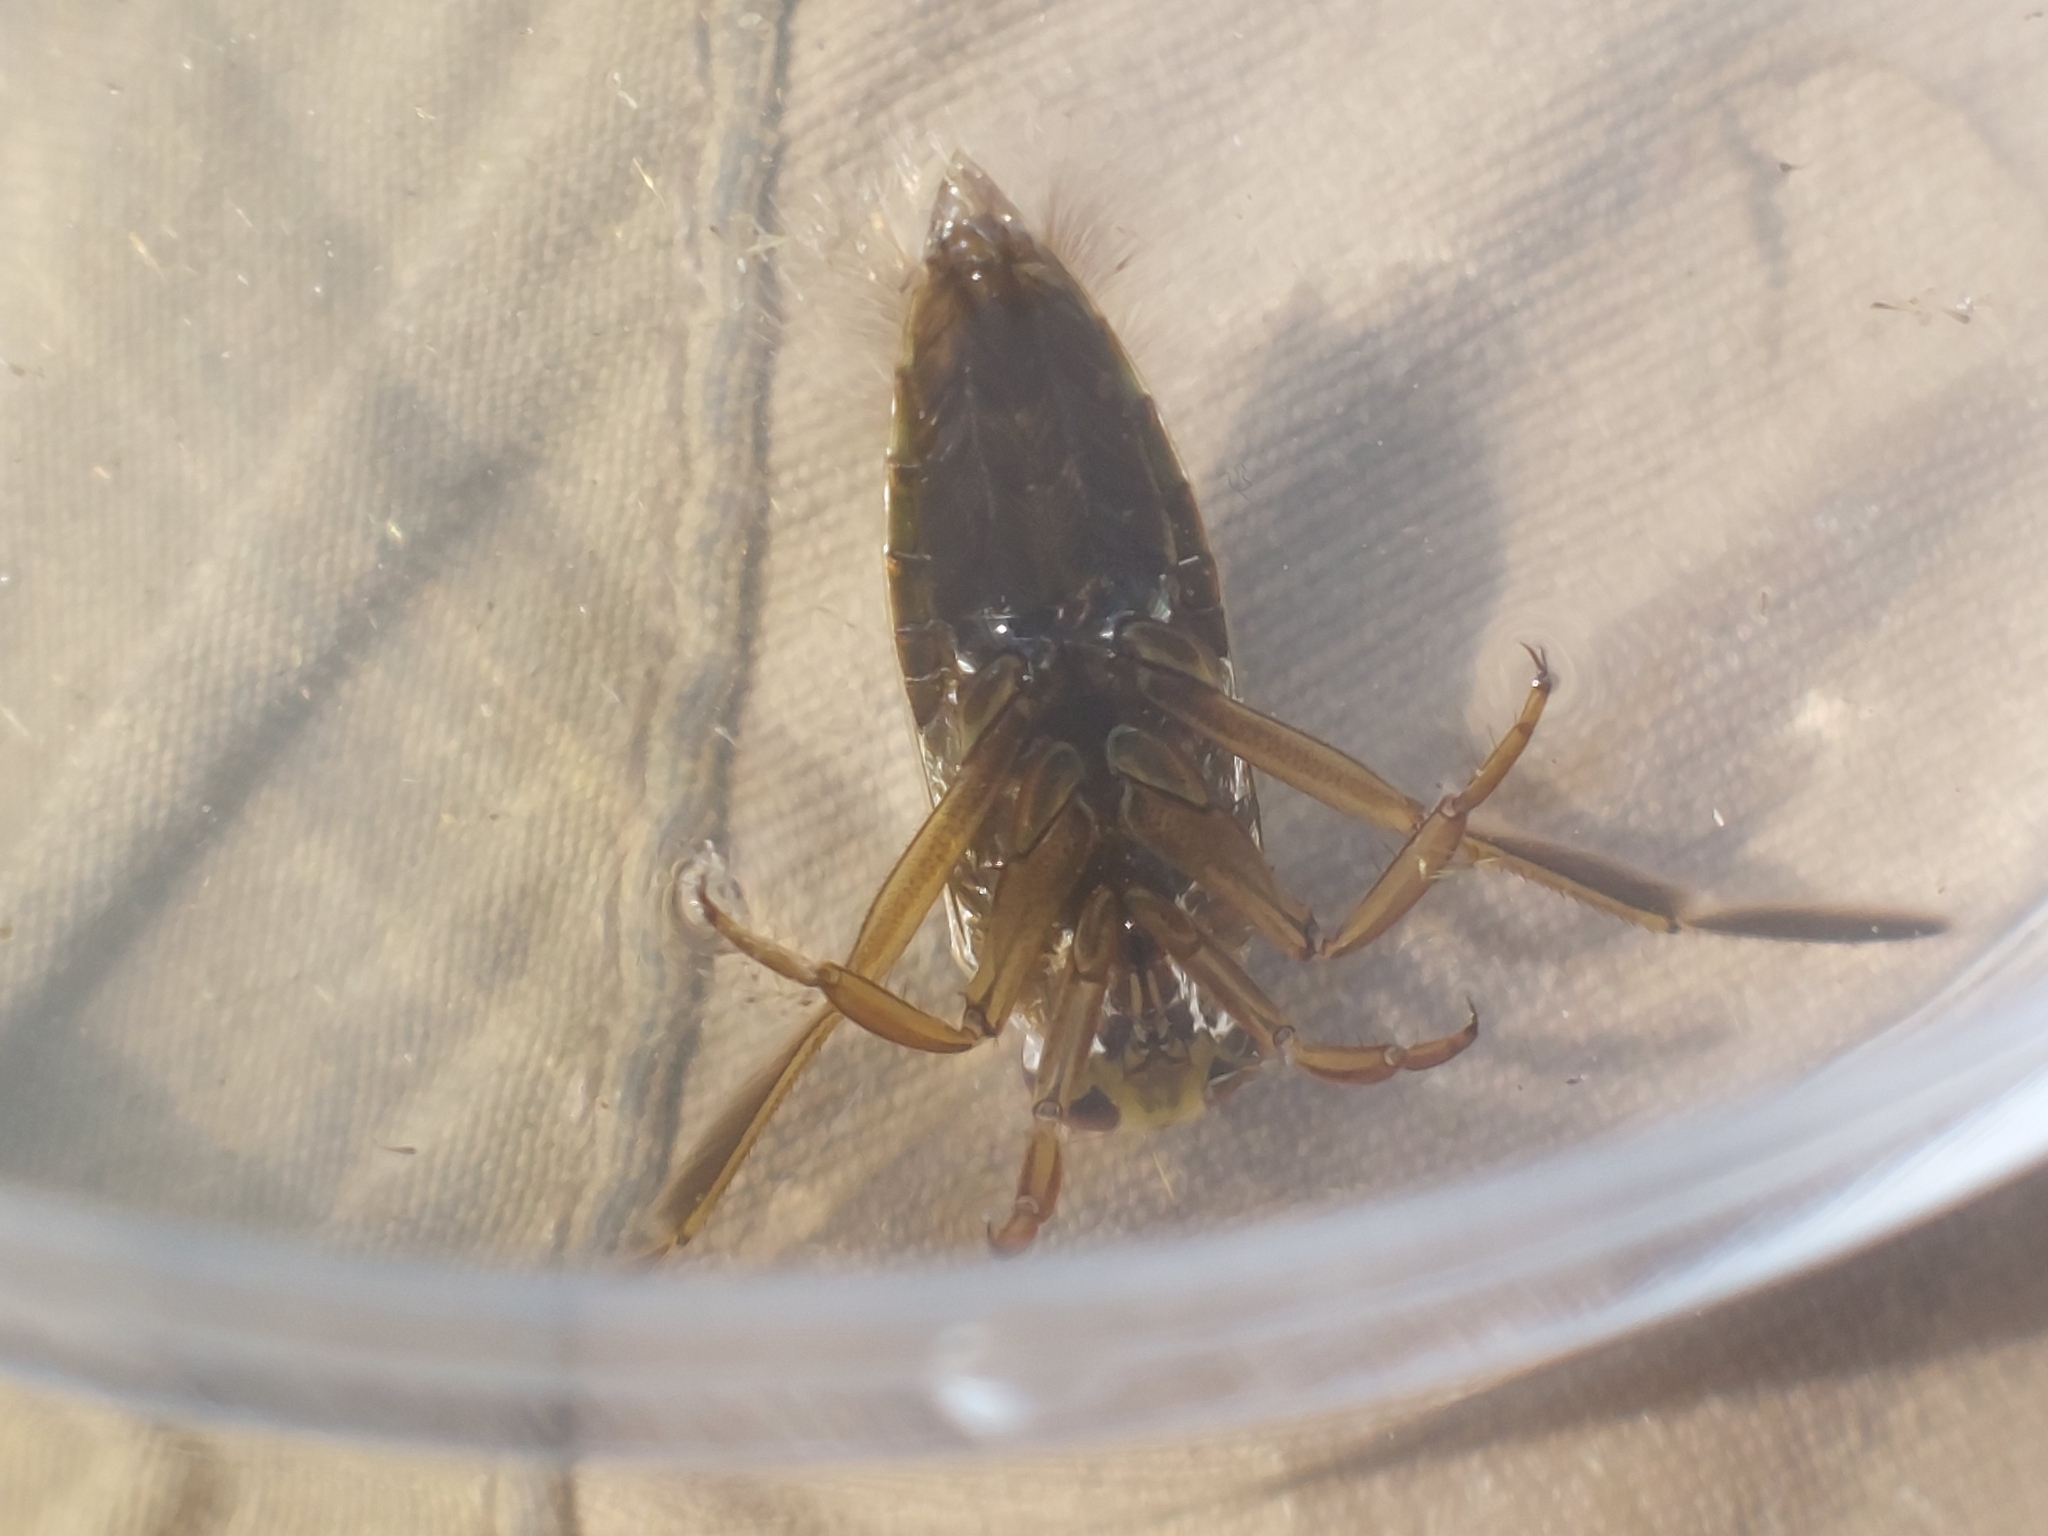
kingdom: Animalia
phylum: Arthropoda
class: Insecta
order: Hemiptera
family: Notonectidae
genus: Notonecta
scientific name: Notonecta glauca
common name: Common water-boatman
